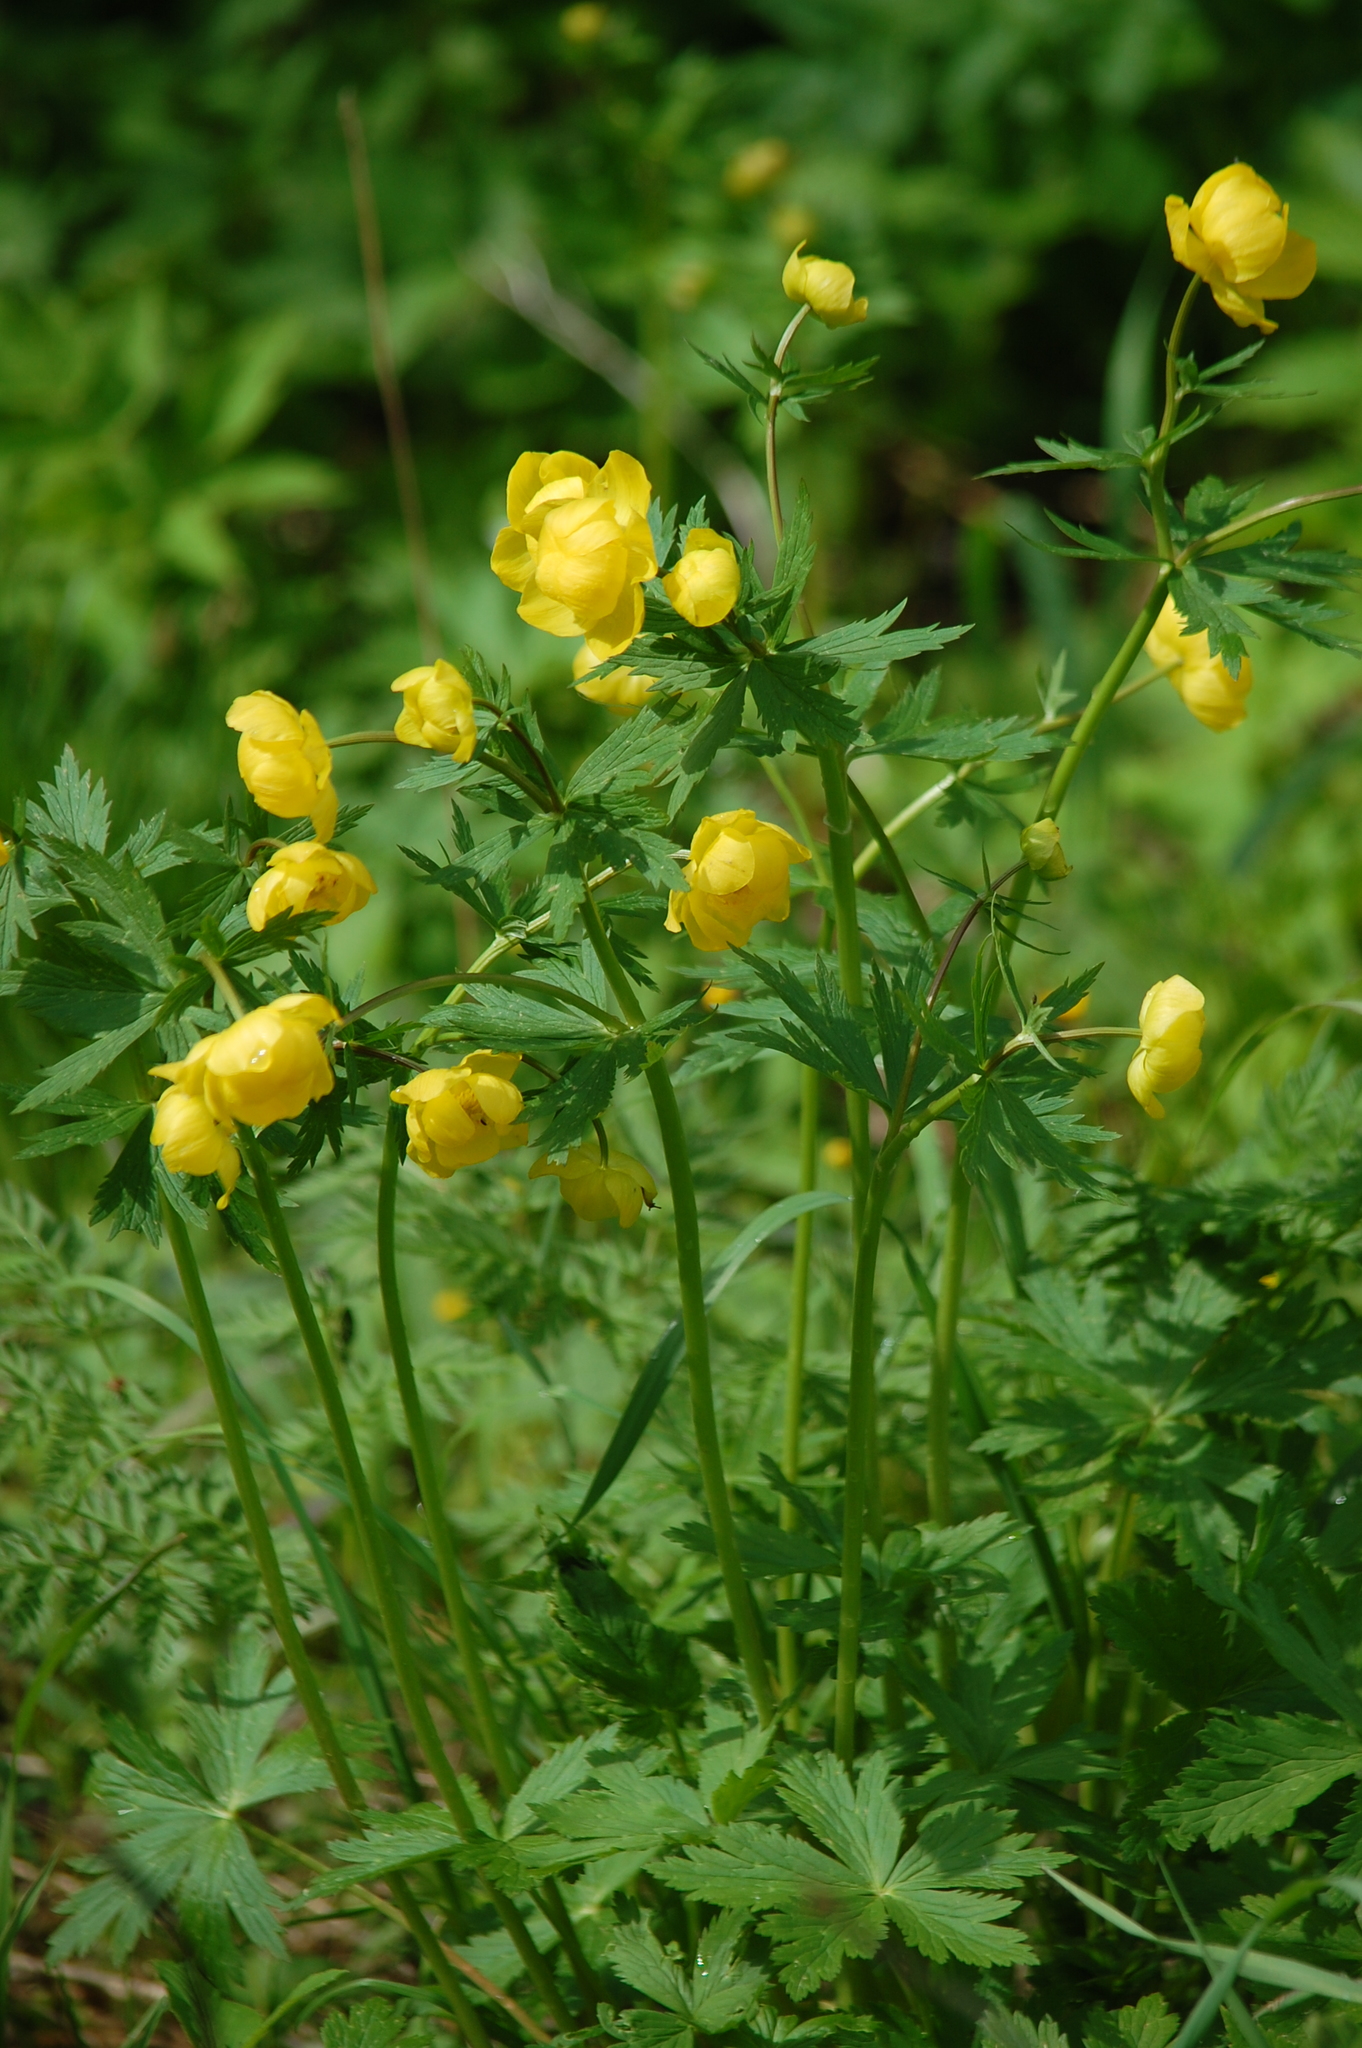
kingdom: Plantae
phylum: Tracheophyta
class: Magnoliopsida
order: Ranunculales
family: Ranunculaceae
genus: Trollius
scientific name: Trollius europaeus
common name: European globeflower
